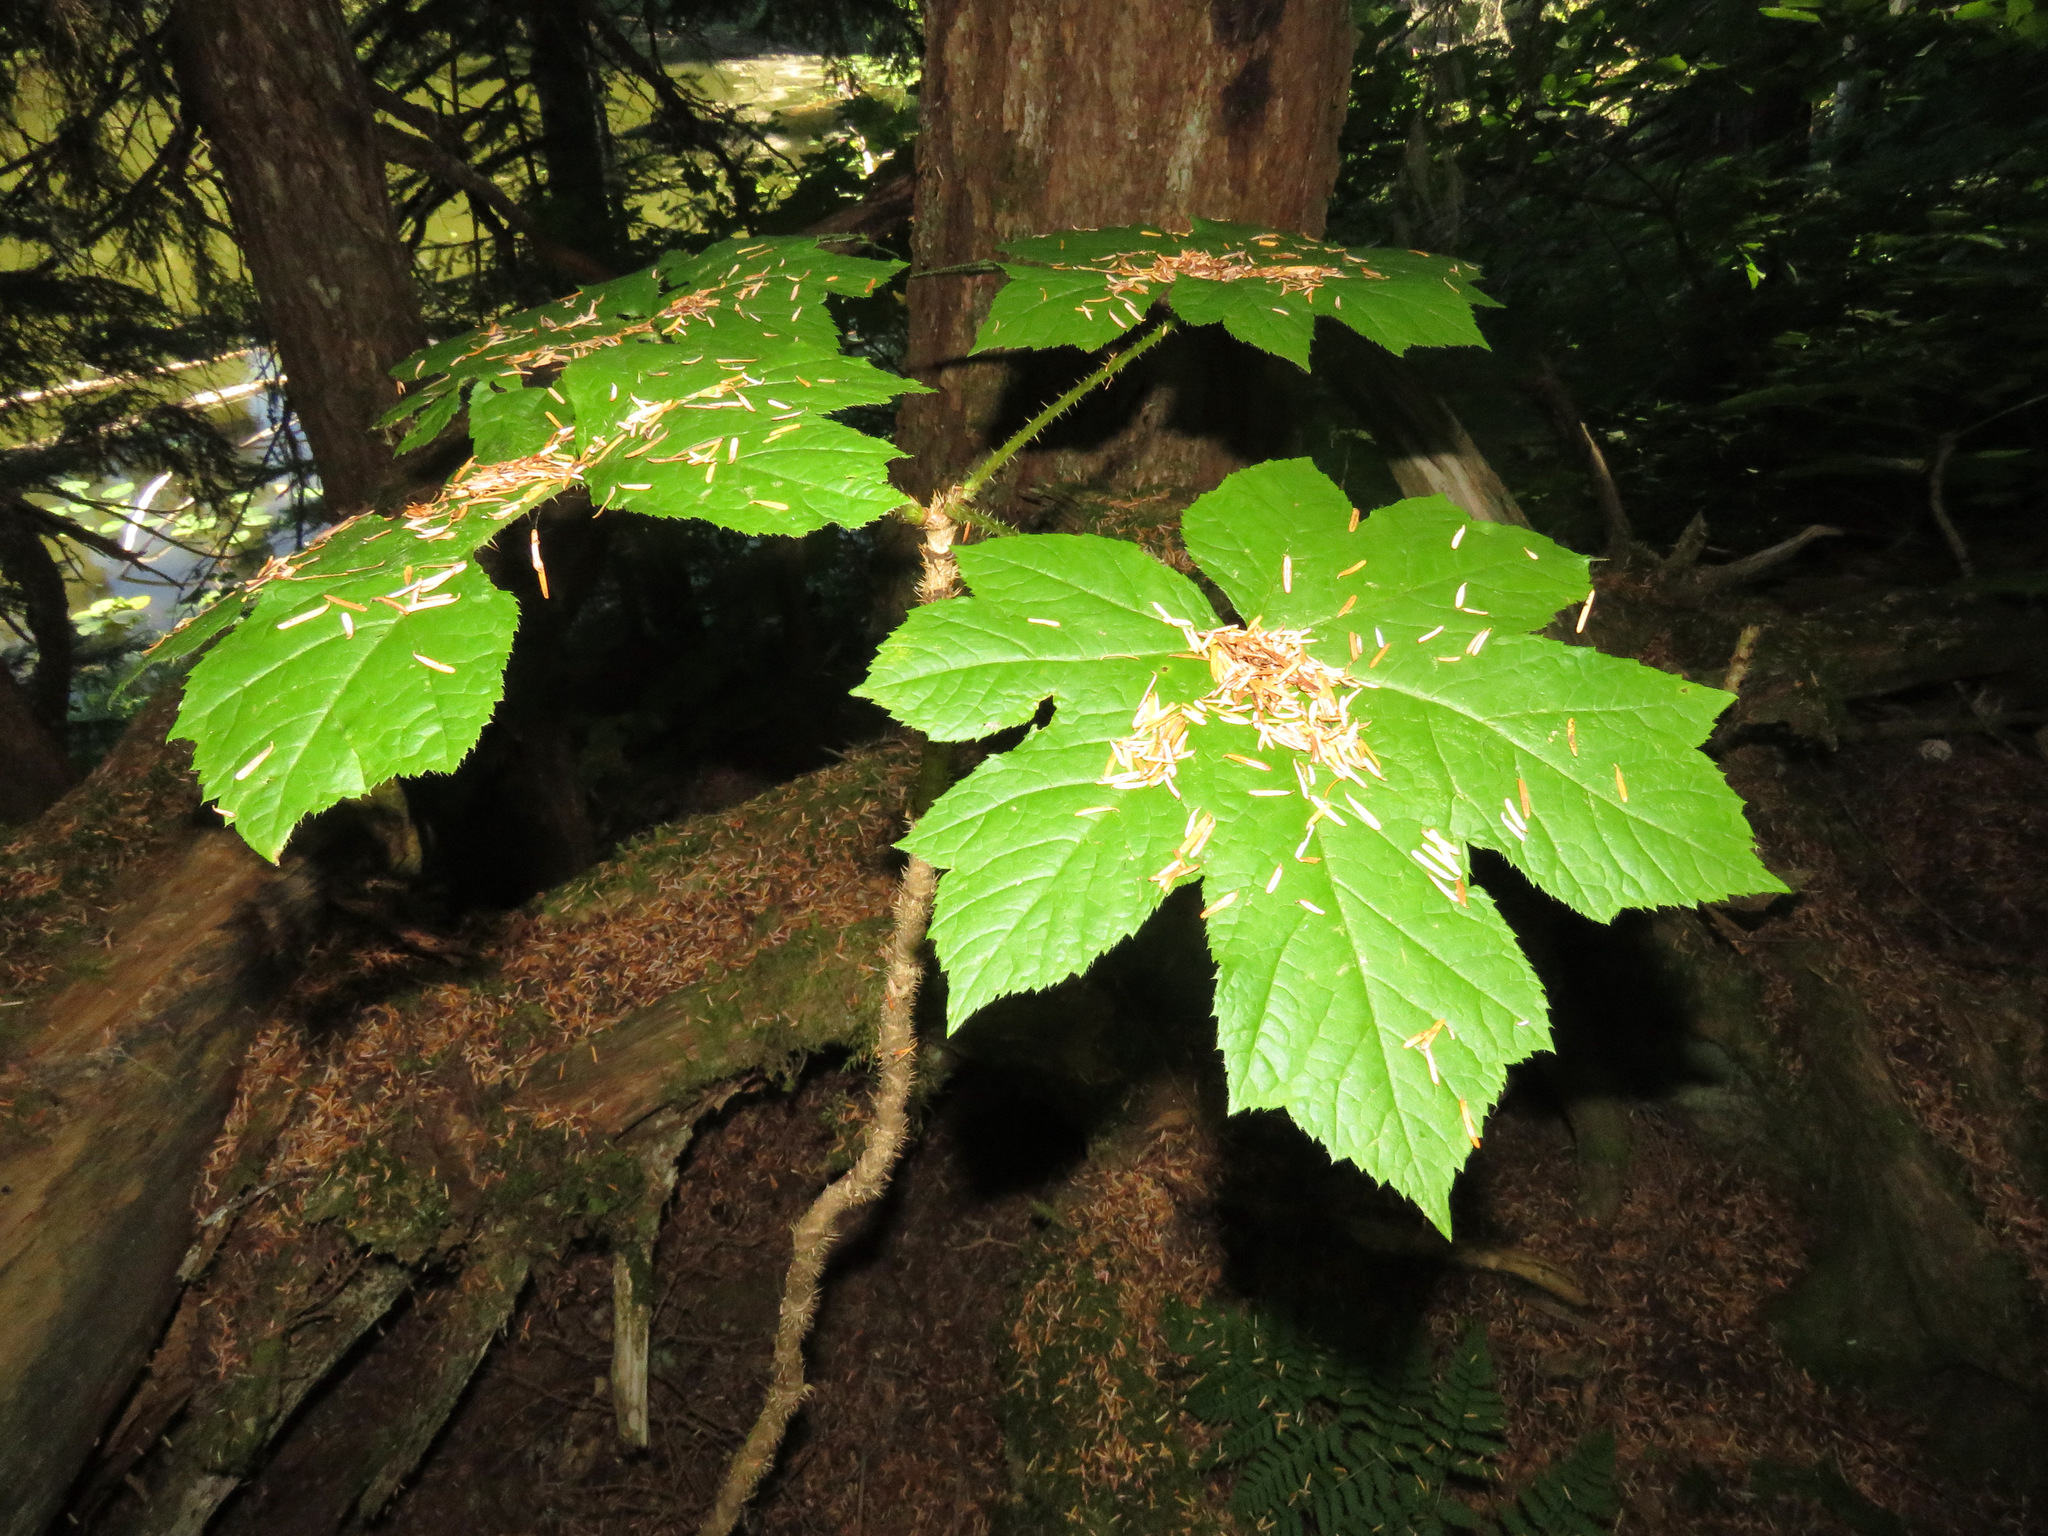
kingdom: Plantae
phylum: Tracheophyta
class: Magnoliopsida
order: Apiales
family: Araliaceae
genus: Oplopanax
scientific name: Oplopanax horridus
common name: Devil's walking-stick
